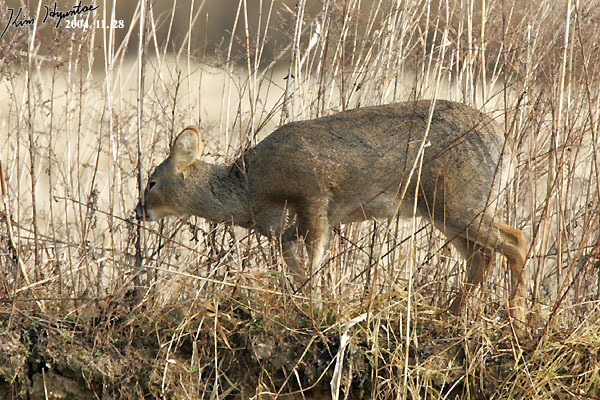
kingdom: Animalia
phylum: Chordata
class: Mammalia
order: Artiodactyla
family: Cervidae
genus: Hydropotes
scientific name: Hydropotes inermis
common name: Chinese water deer
